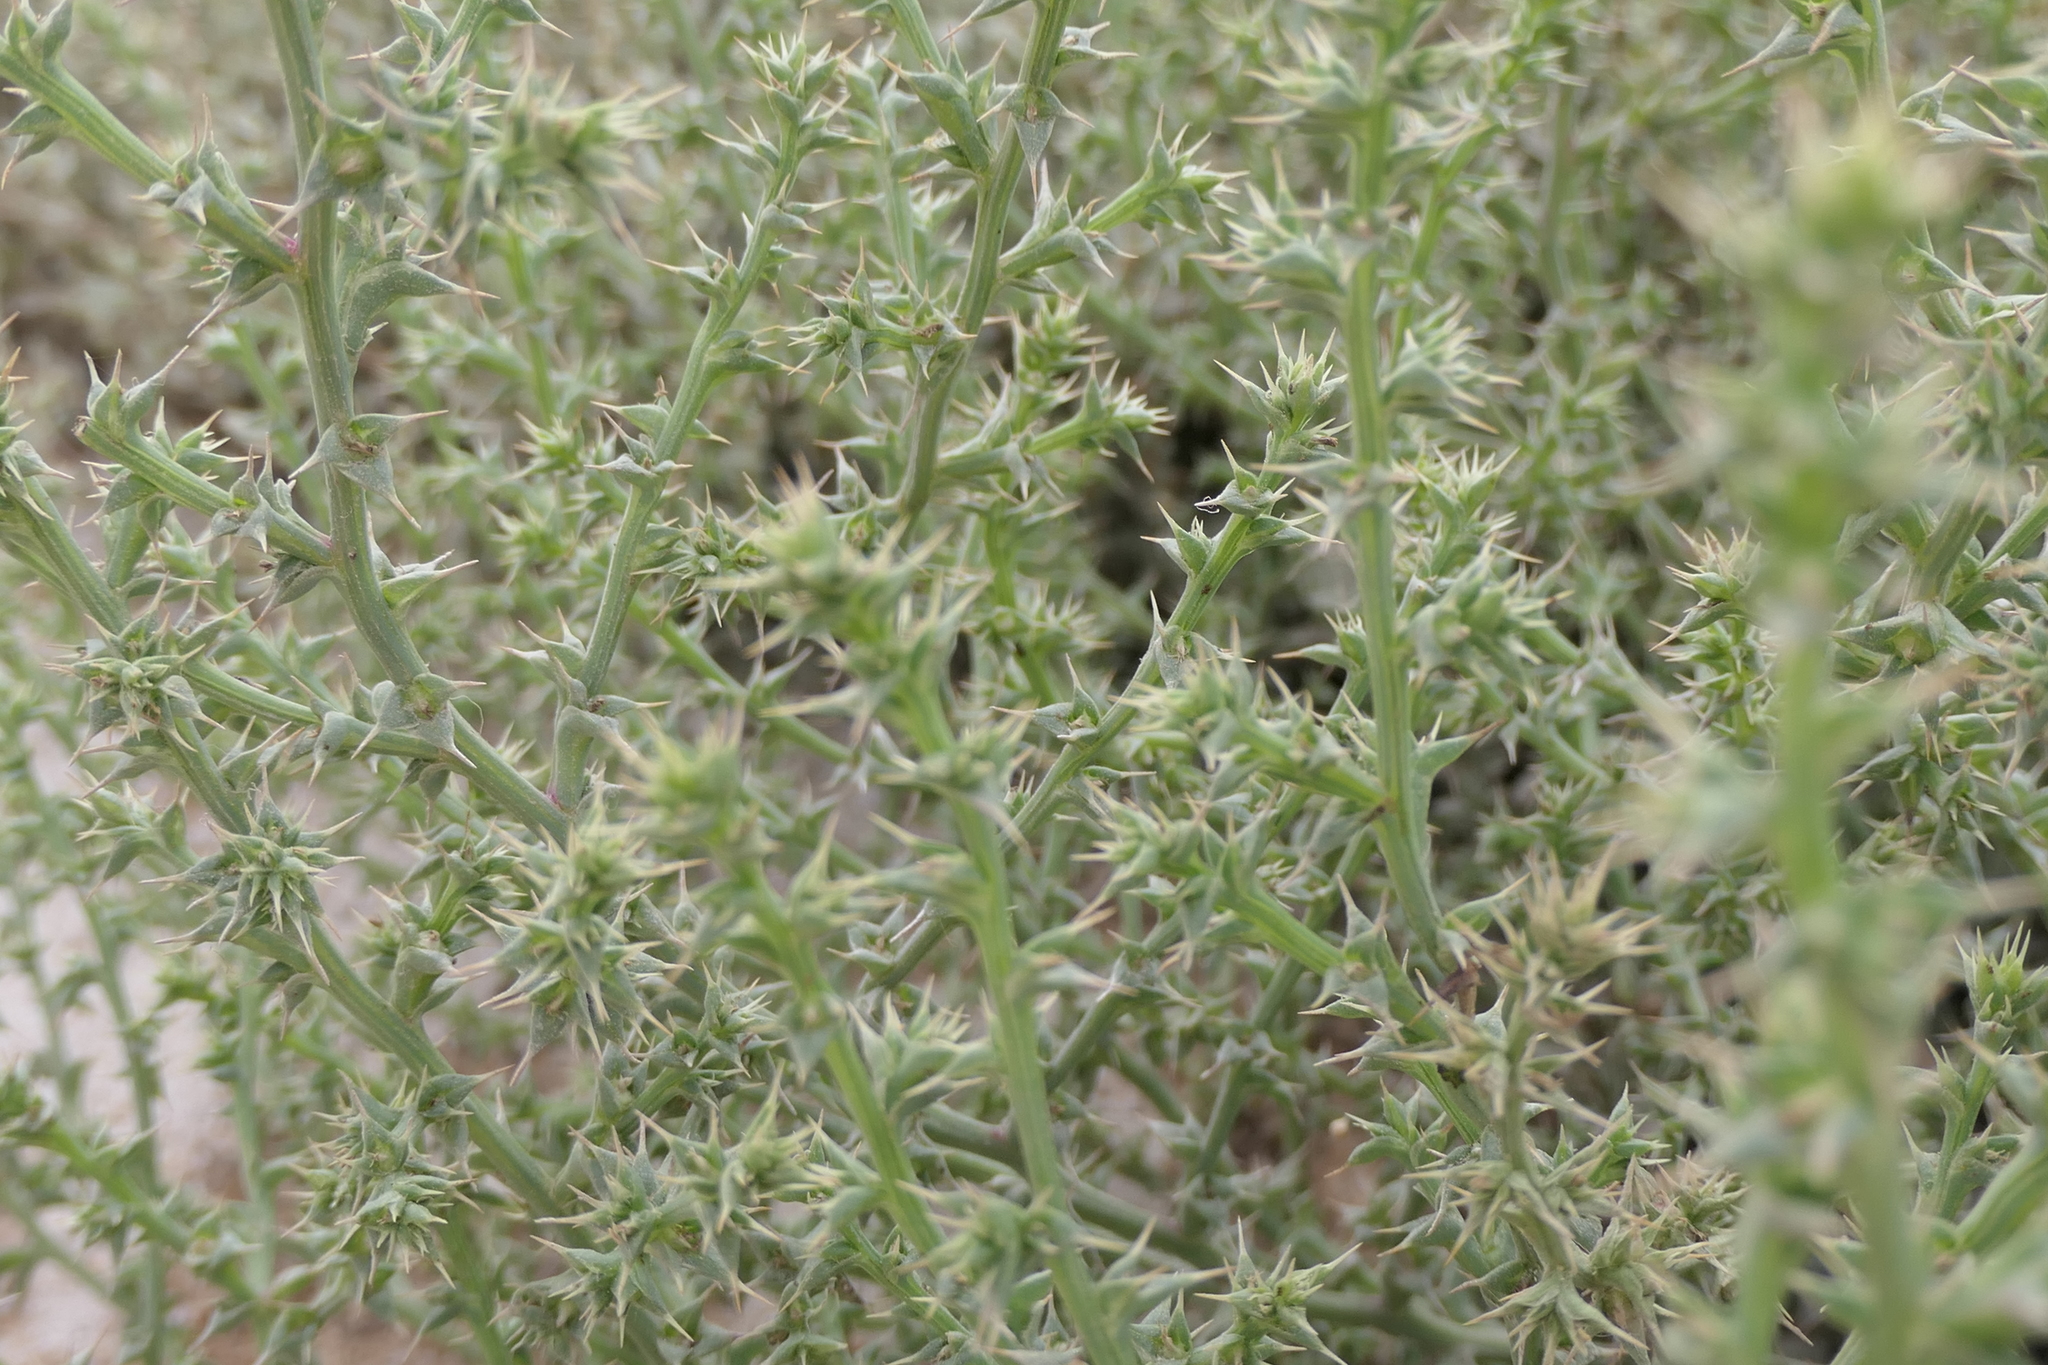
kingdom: Plantae
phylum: Tracheophyta
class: Magnoliopsida
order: Caryophyllales
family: Amaranthaceae
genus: Salsola
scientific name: Salsola kali
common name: Saltwort
